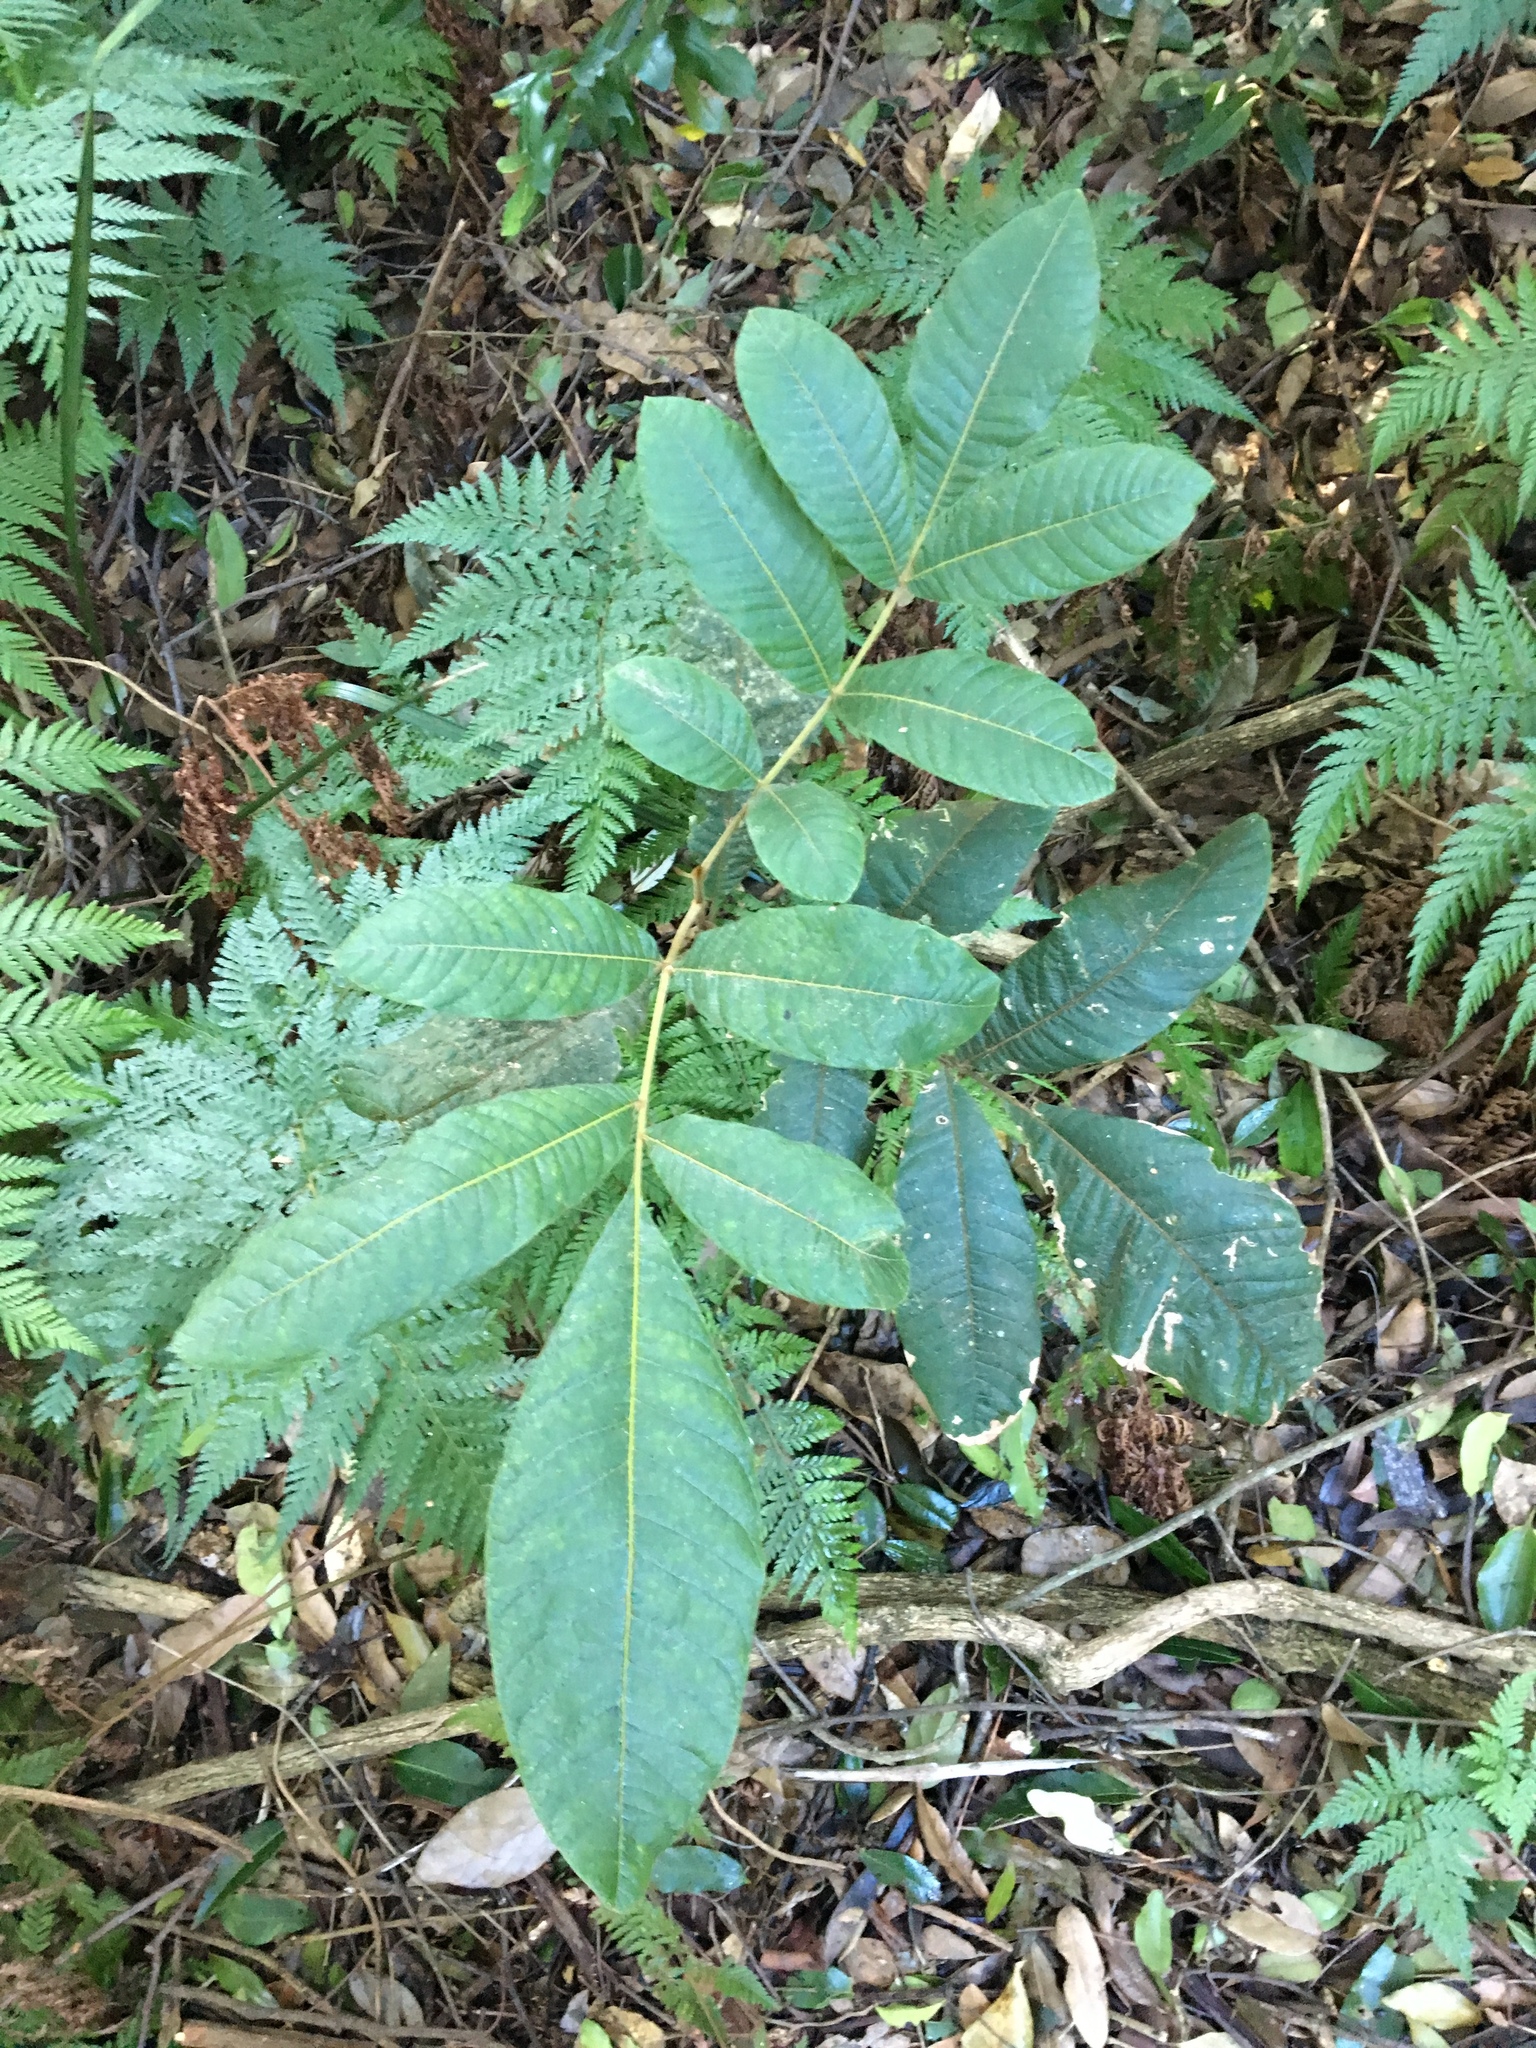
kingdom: Plantae
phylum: Tracheophyta
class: Magnoliopsida
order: Sapindales
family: Sapindaceae
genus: Diploglottis
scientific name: Diploglottis australis
